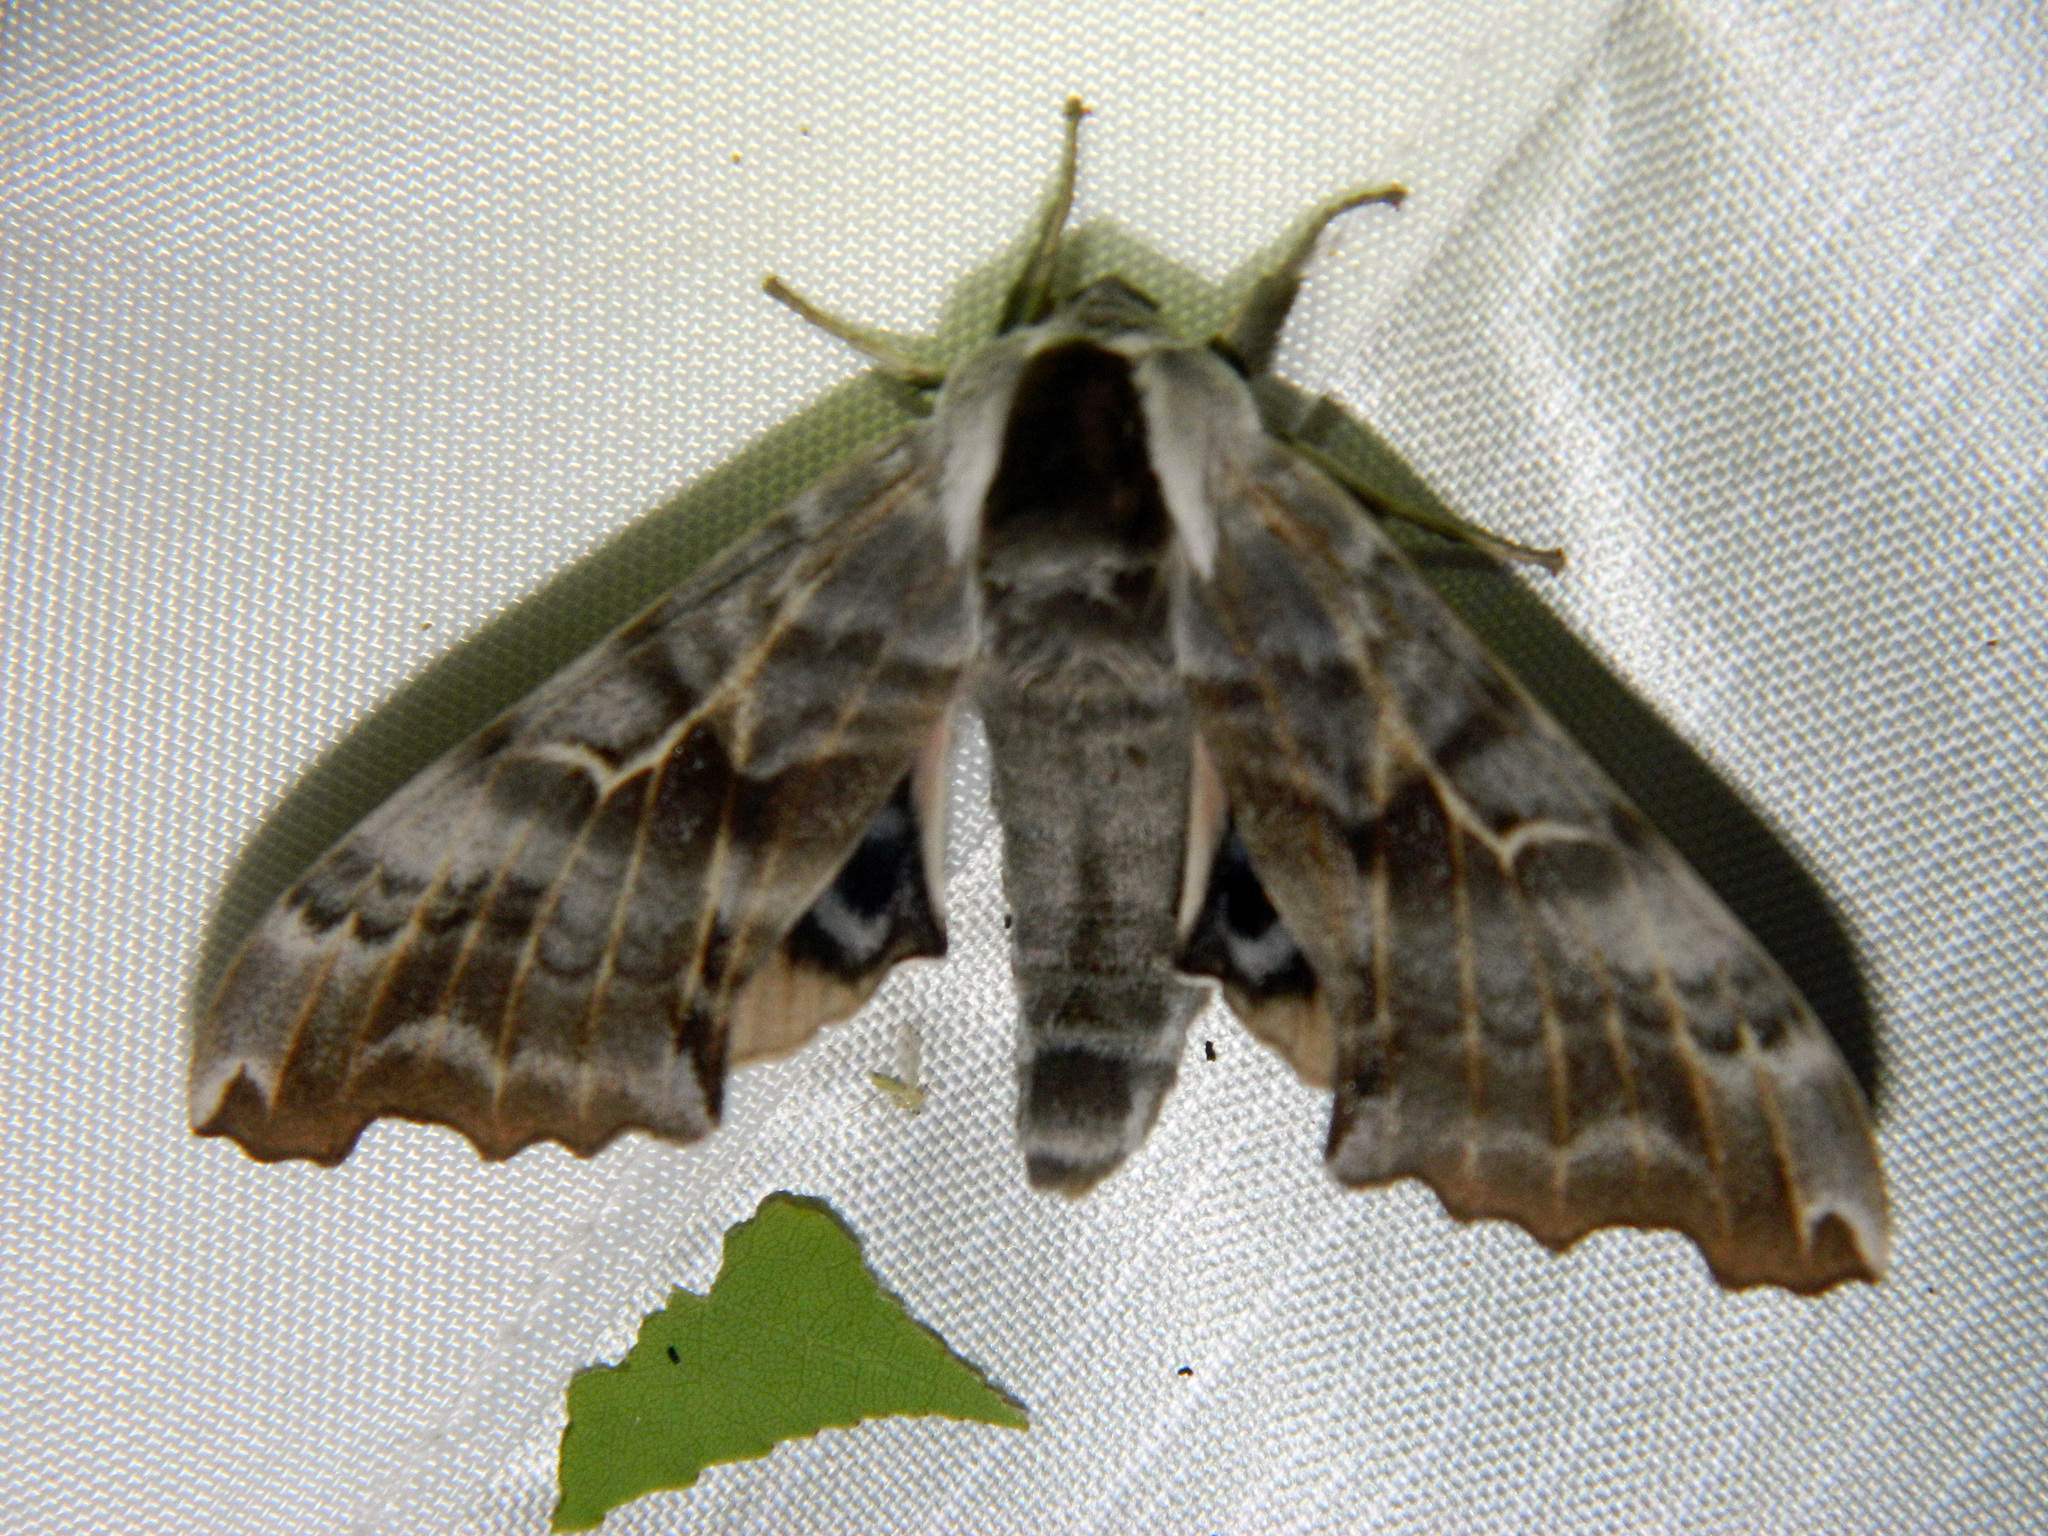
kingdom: Animalia
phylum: Arthropoda
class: Insecta
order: Lepidoptera
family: Sphingidae
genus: Smerinthus
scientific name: Smerinthus cerisyi
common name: Cerisy's sphinx moth
